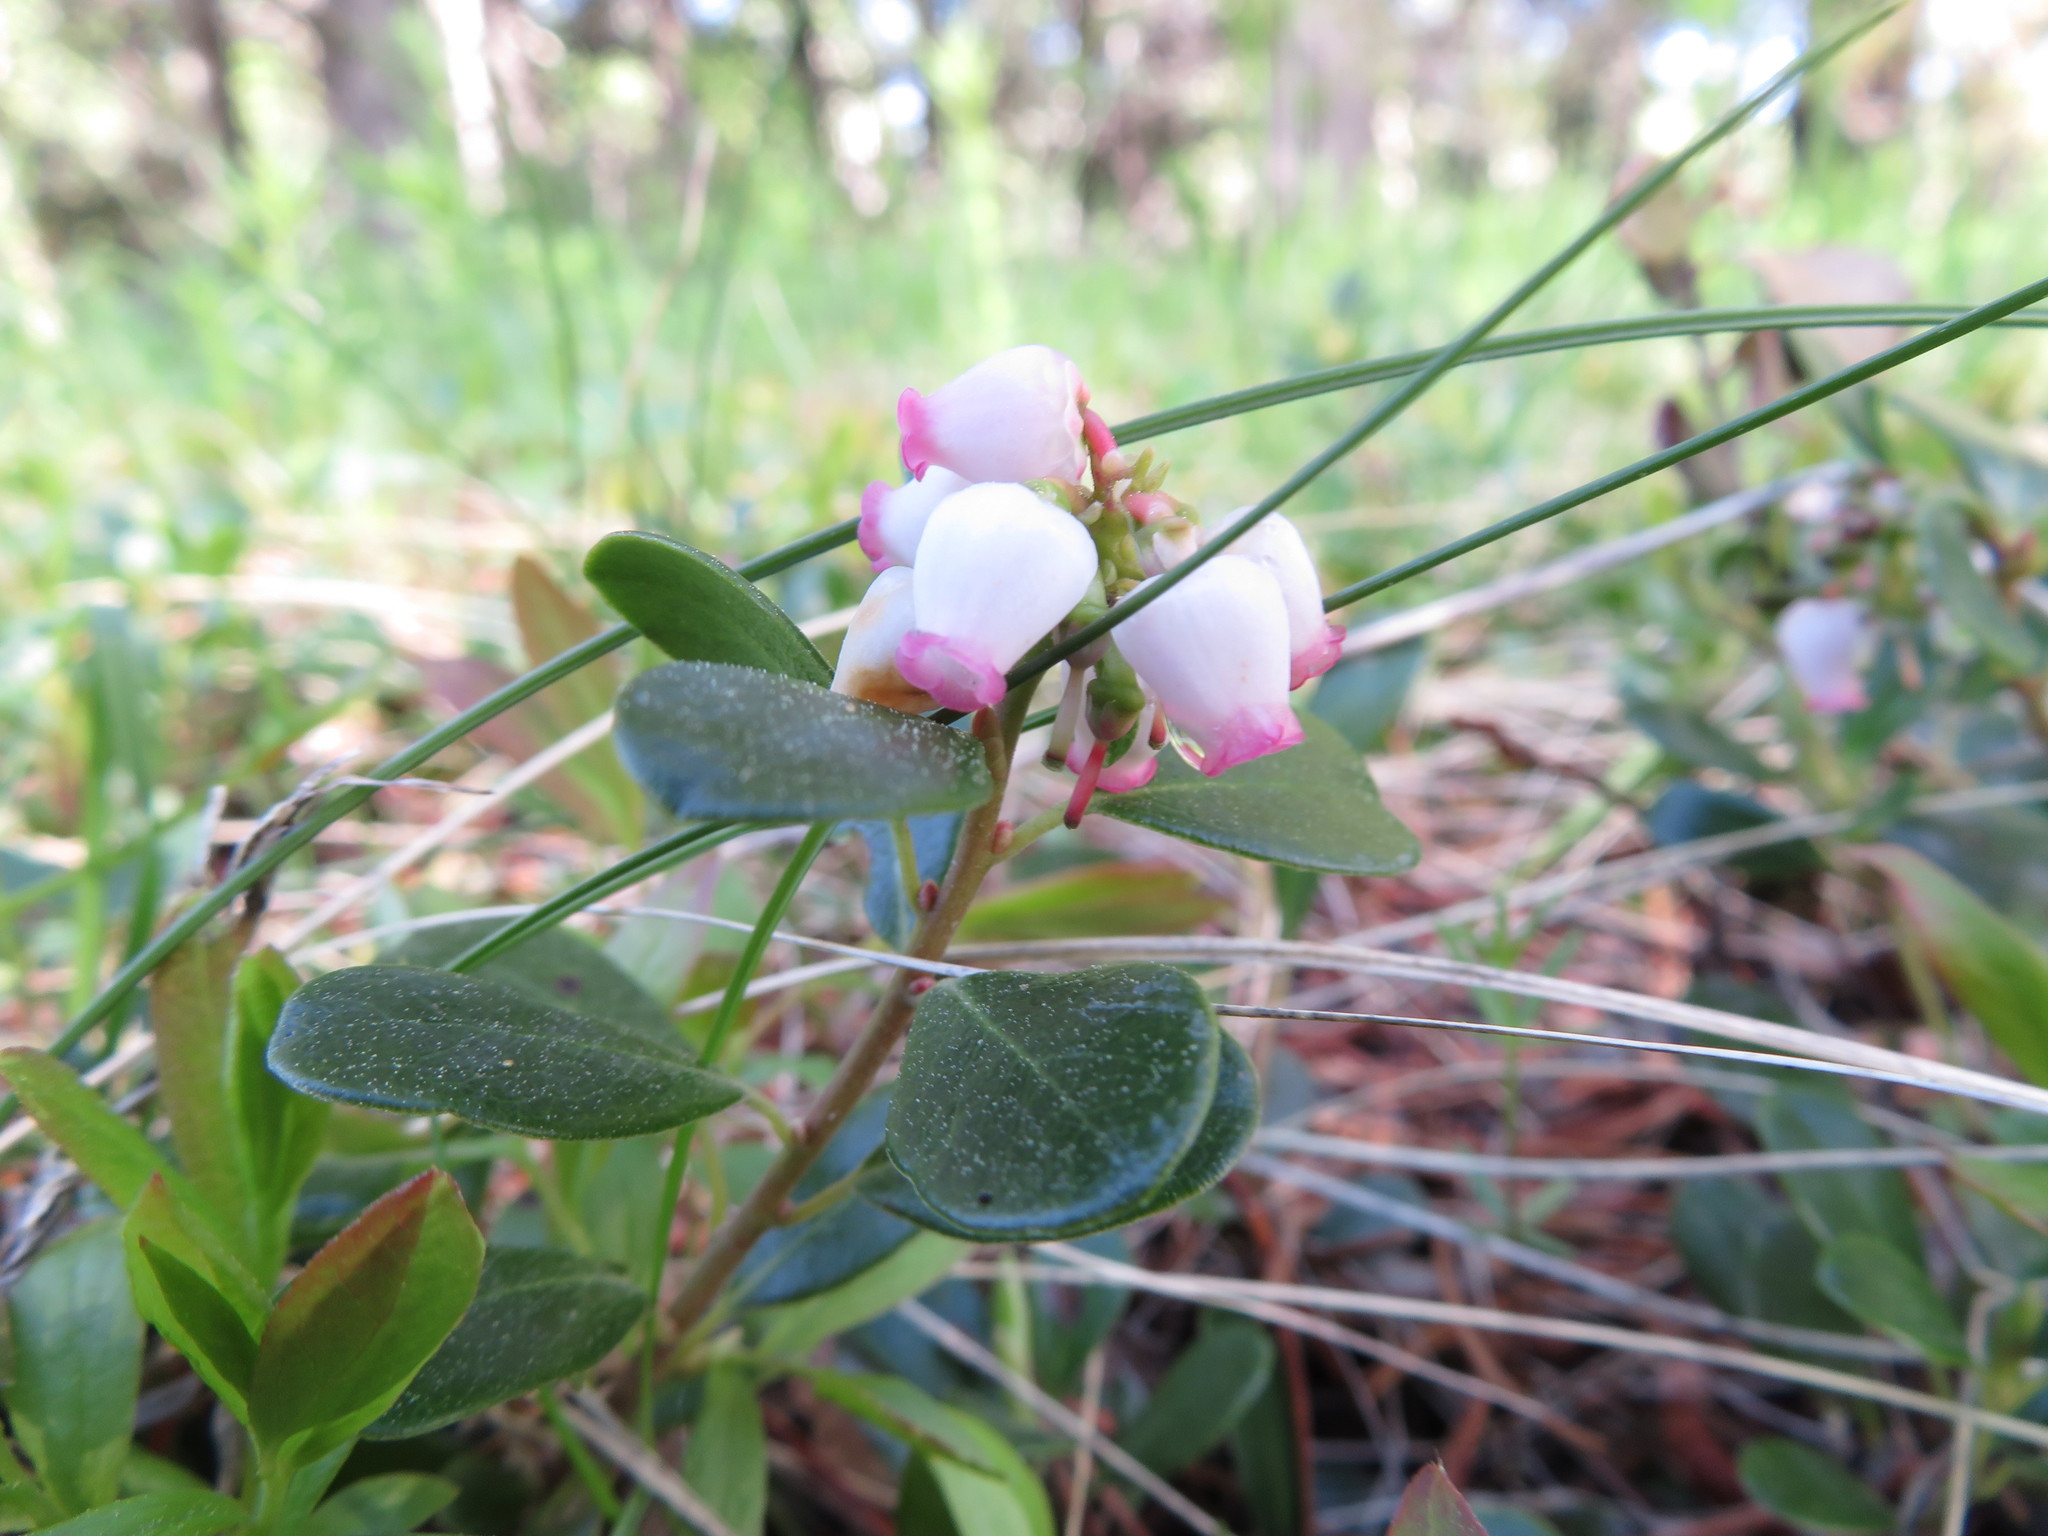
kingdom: Plantae
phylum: Tracheophyta
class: Magnoliopsida
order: Ericales
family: Ericaceae
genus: Arctostaphylos
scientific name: Arctostaphylos uva-ursi
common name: Bearberry
